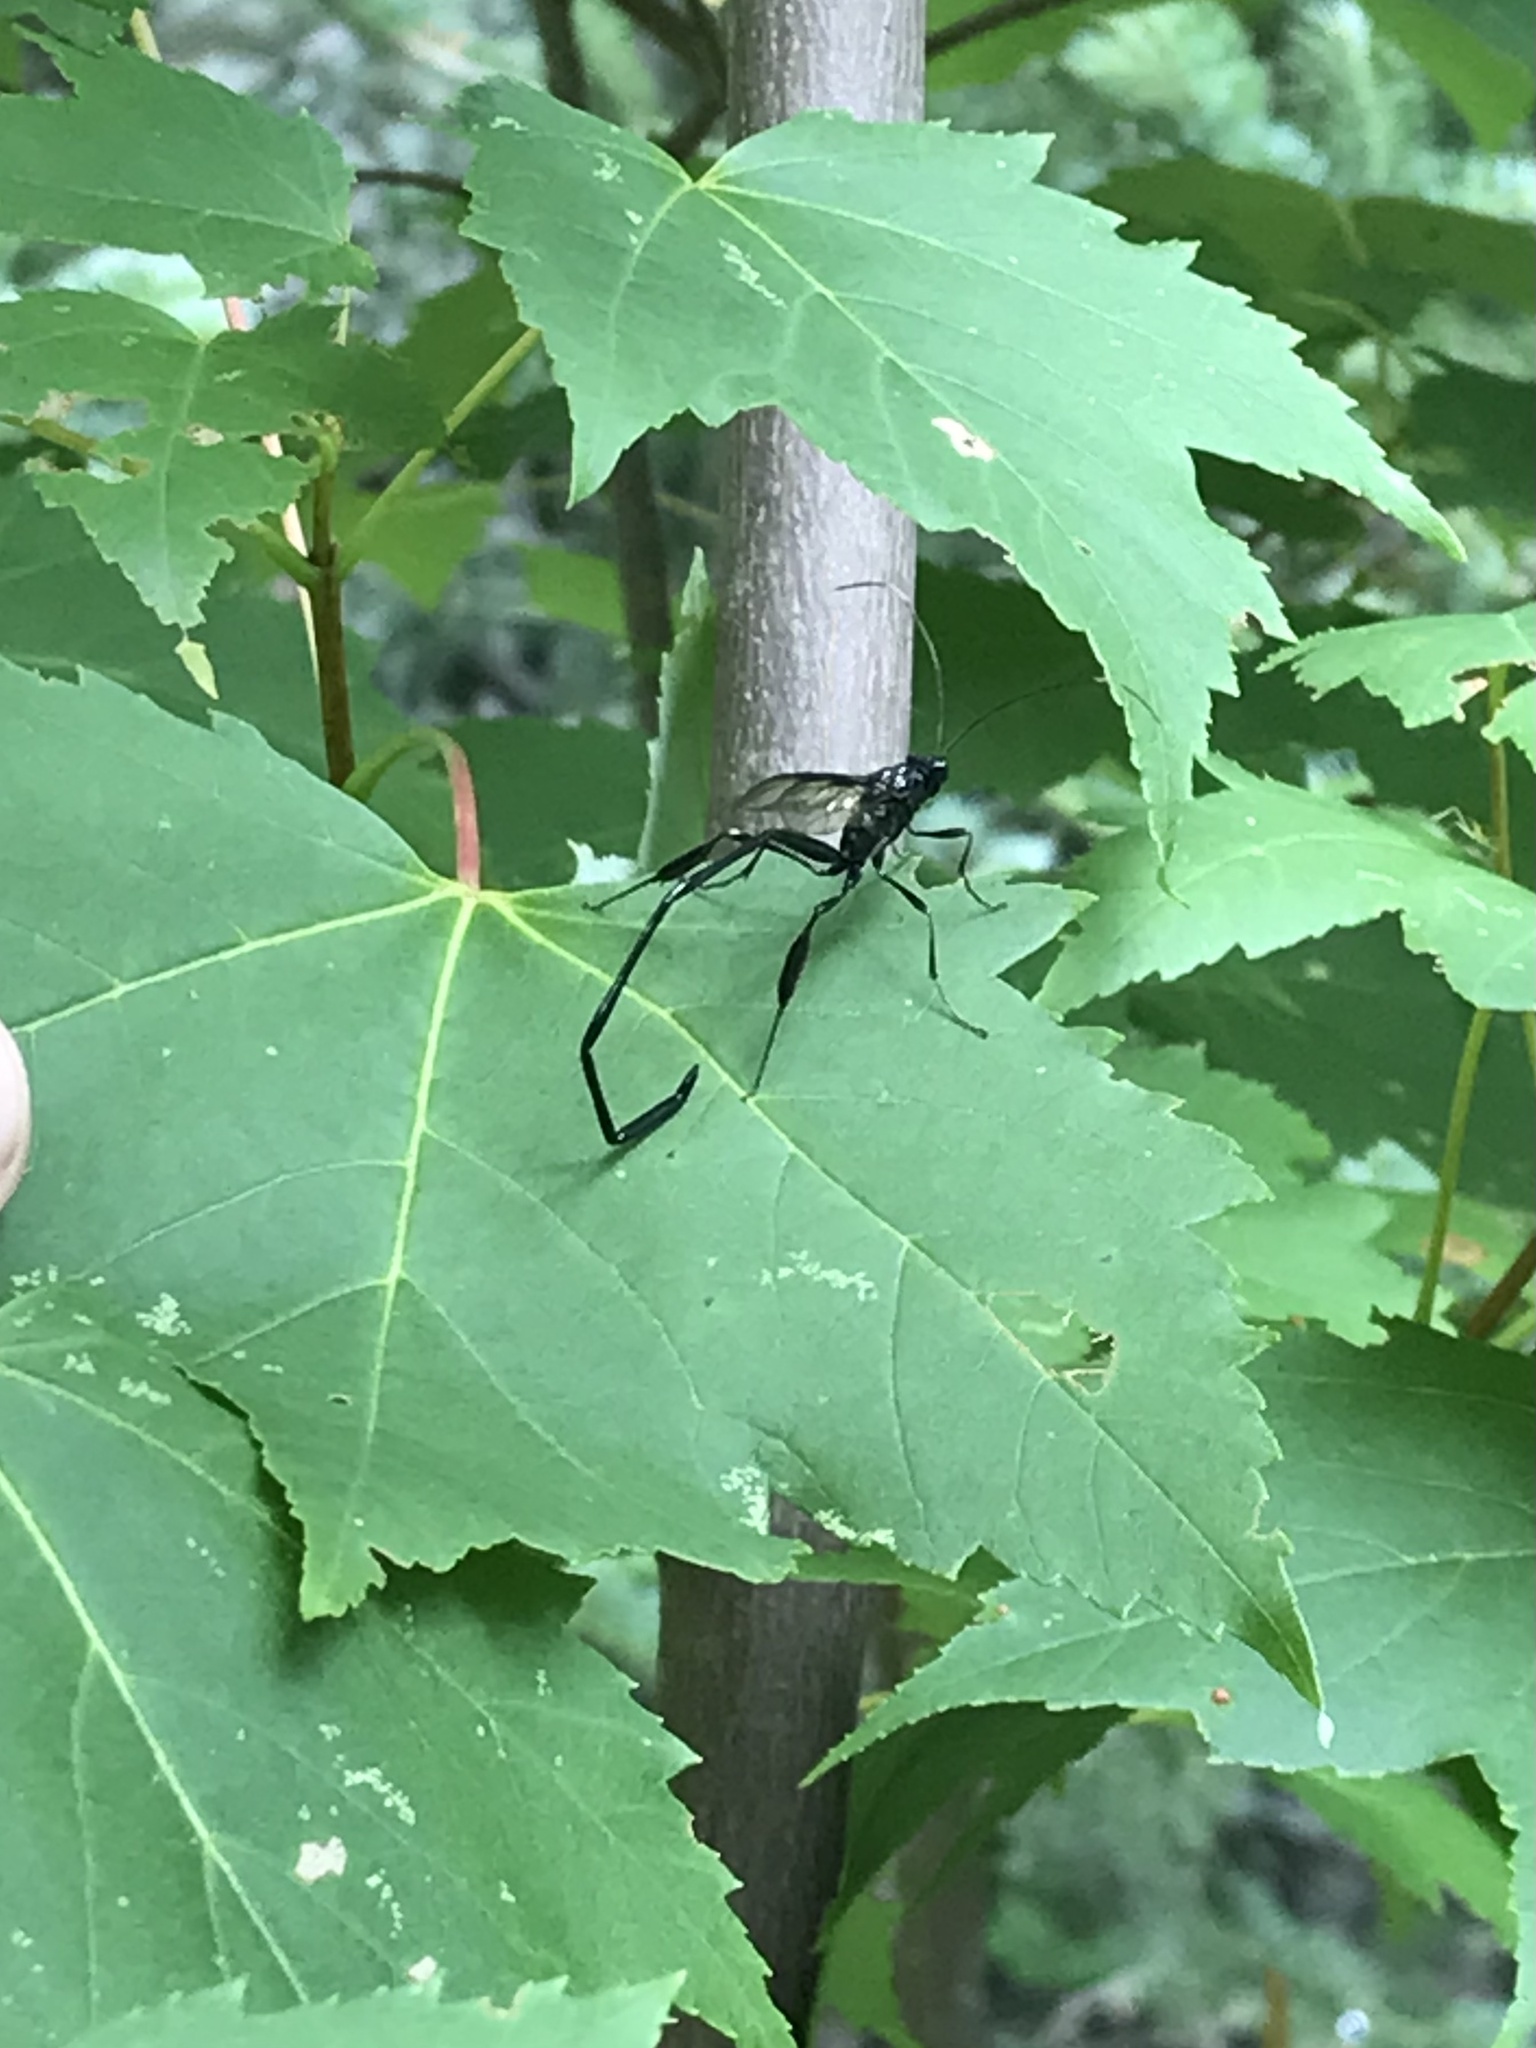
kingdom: Animalia
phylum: Arthropoda
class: Insecta
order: Hymenoptera
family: Pelecinidae
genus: Pelecinus
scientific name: Pelecinus polyturator
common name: American pelecinid wasp
